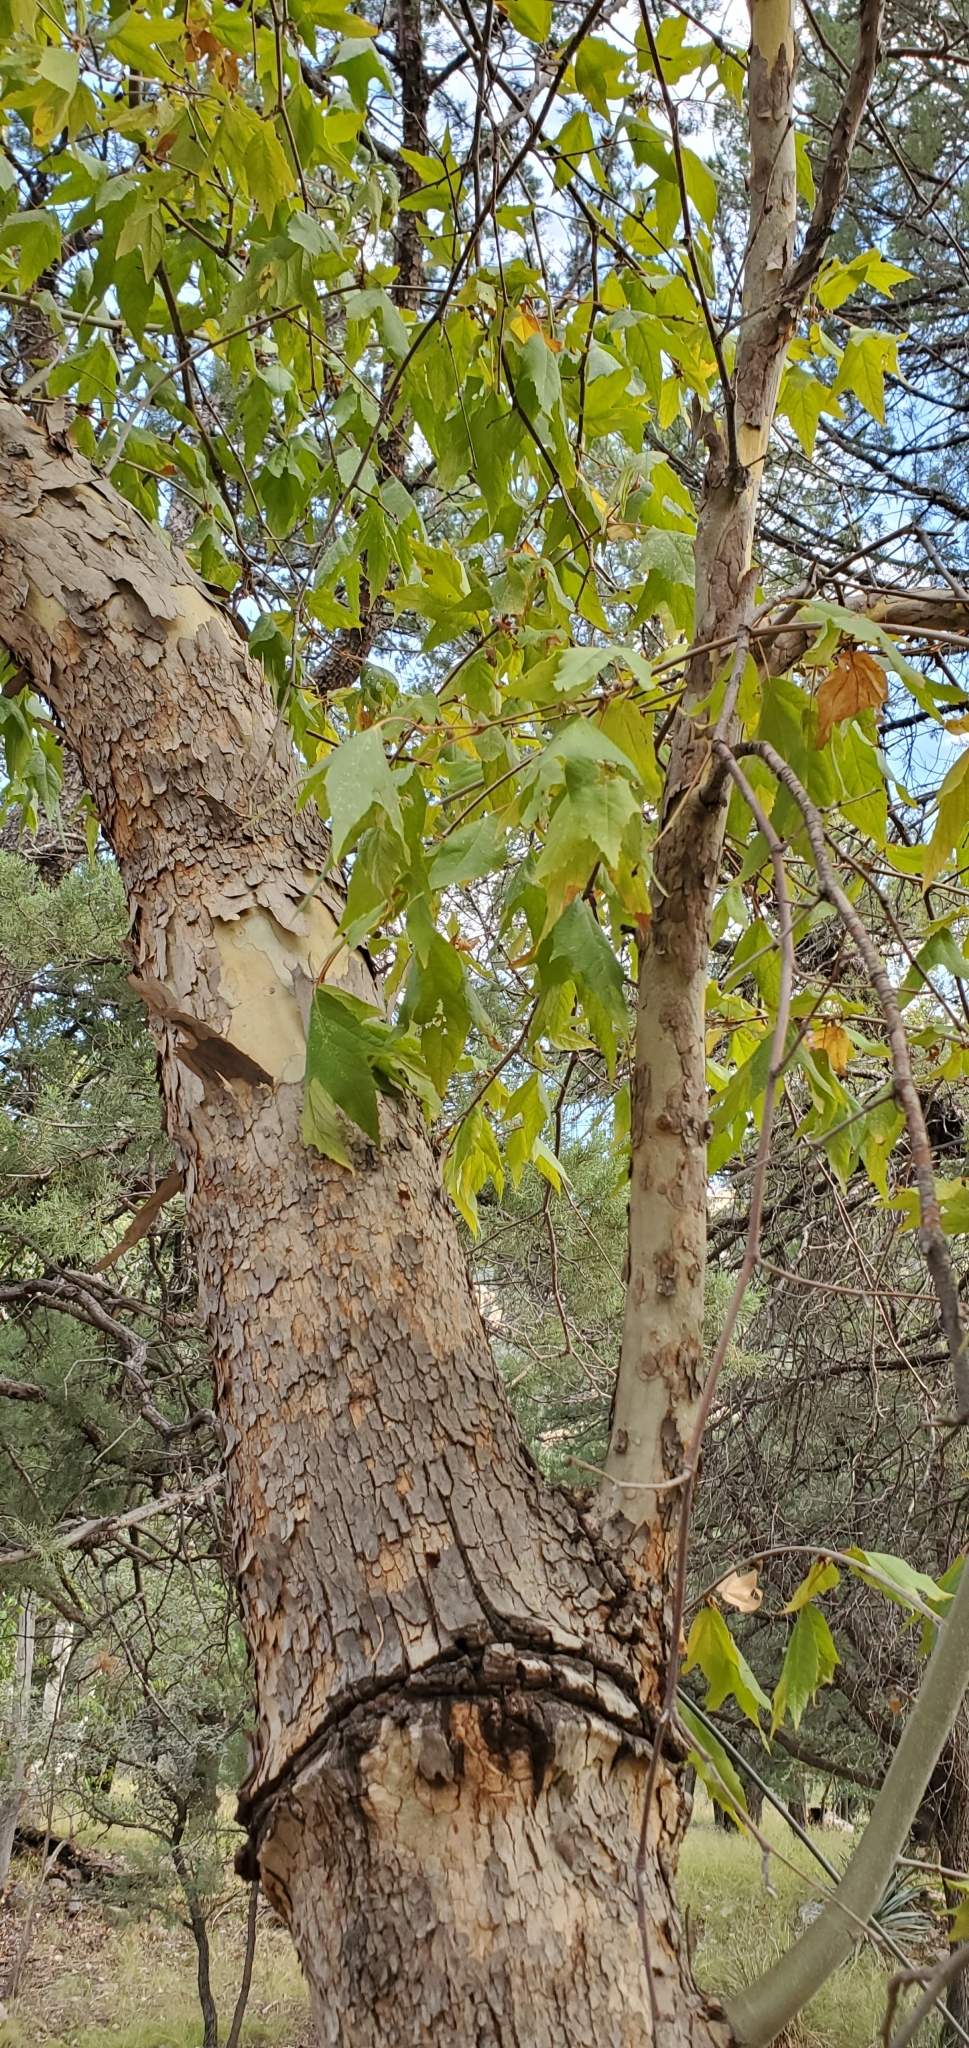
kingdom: Plantae
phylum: Tracheophyta
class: Magnoliopsida
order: Proteales
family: Platanaceae
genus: Platanus
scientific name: Platanus wrightii
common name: Arizona sycamore
